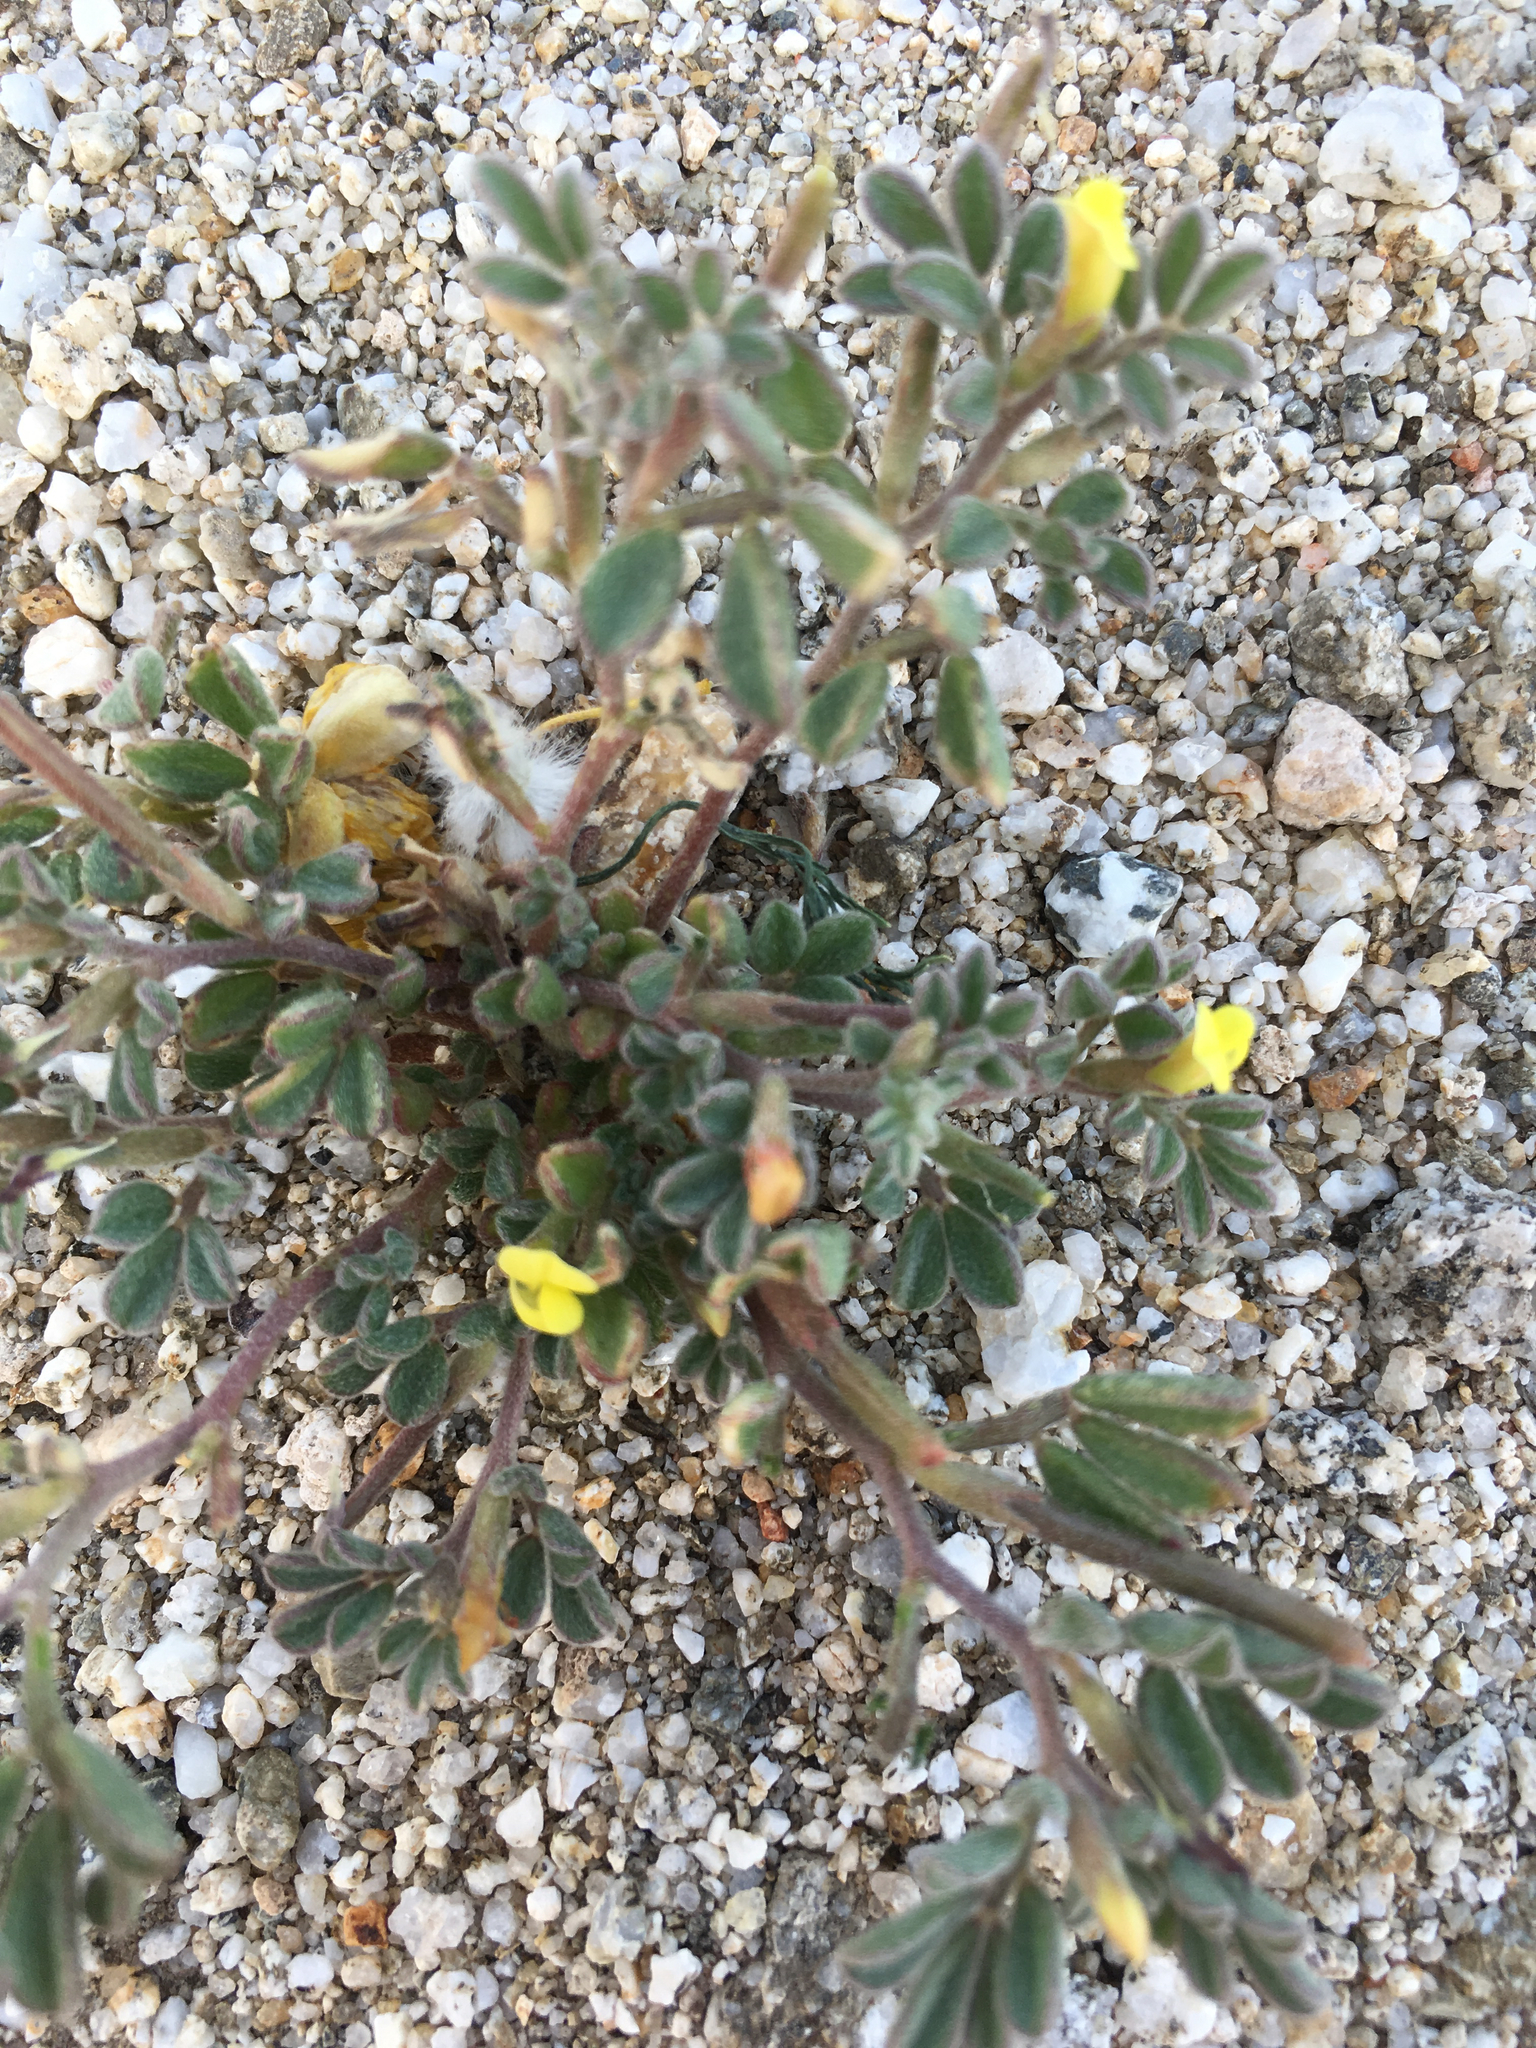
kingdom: Plantae
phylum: Tracheophyta
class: Magnoliopsida
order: Fabales
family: Fabaceae
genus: Acmispon
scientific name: Acmispon strigosus
